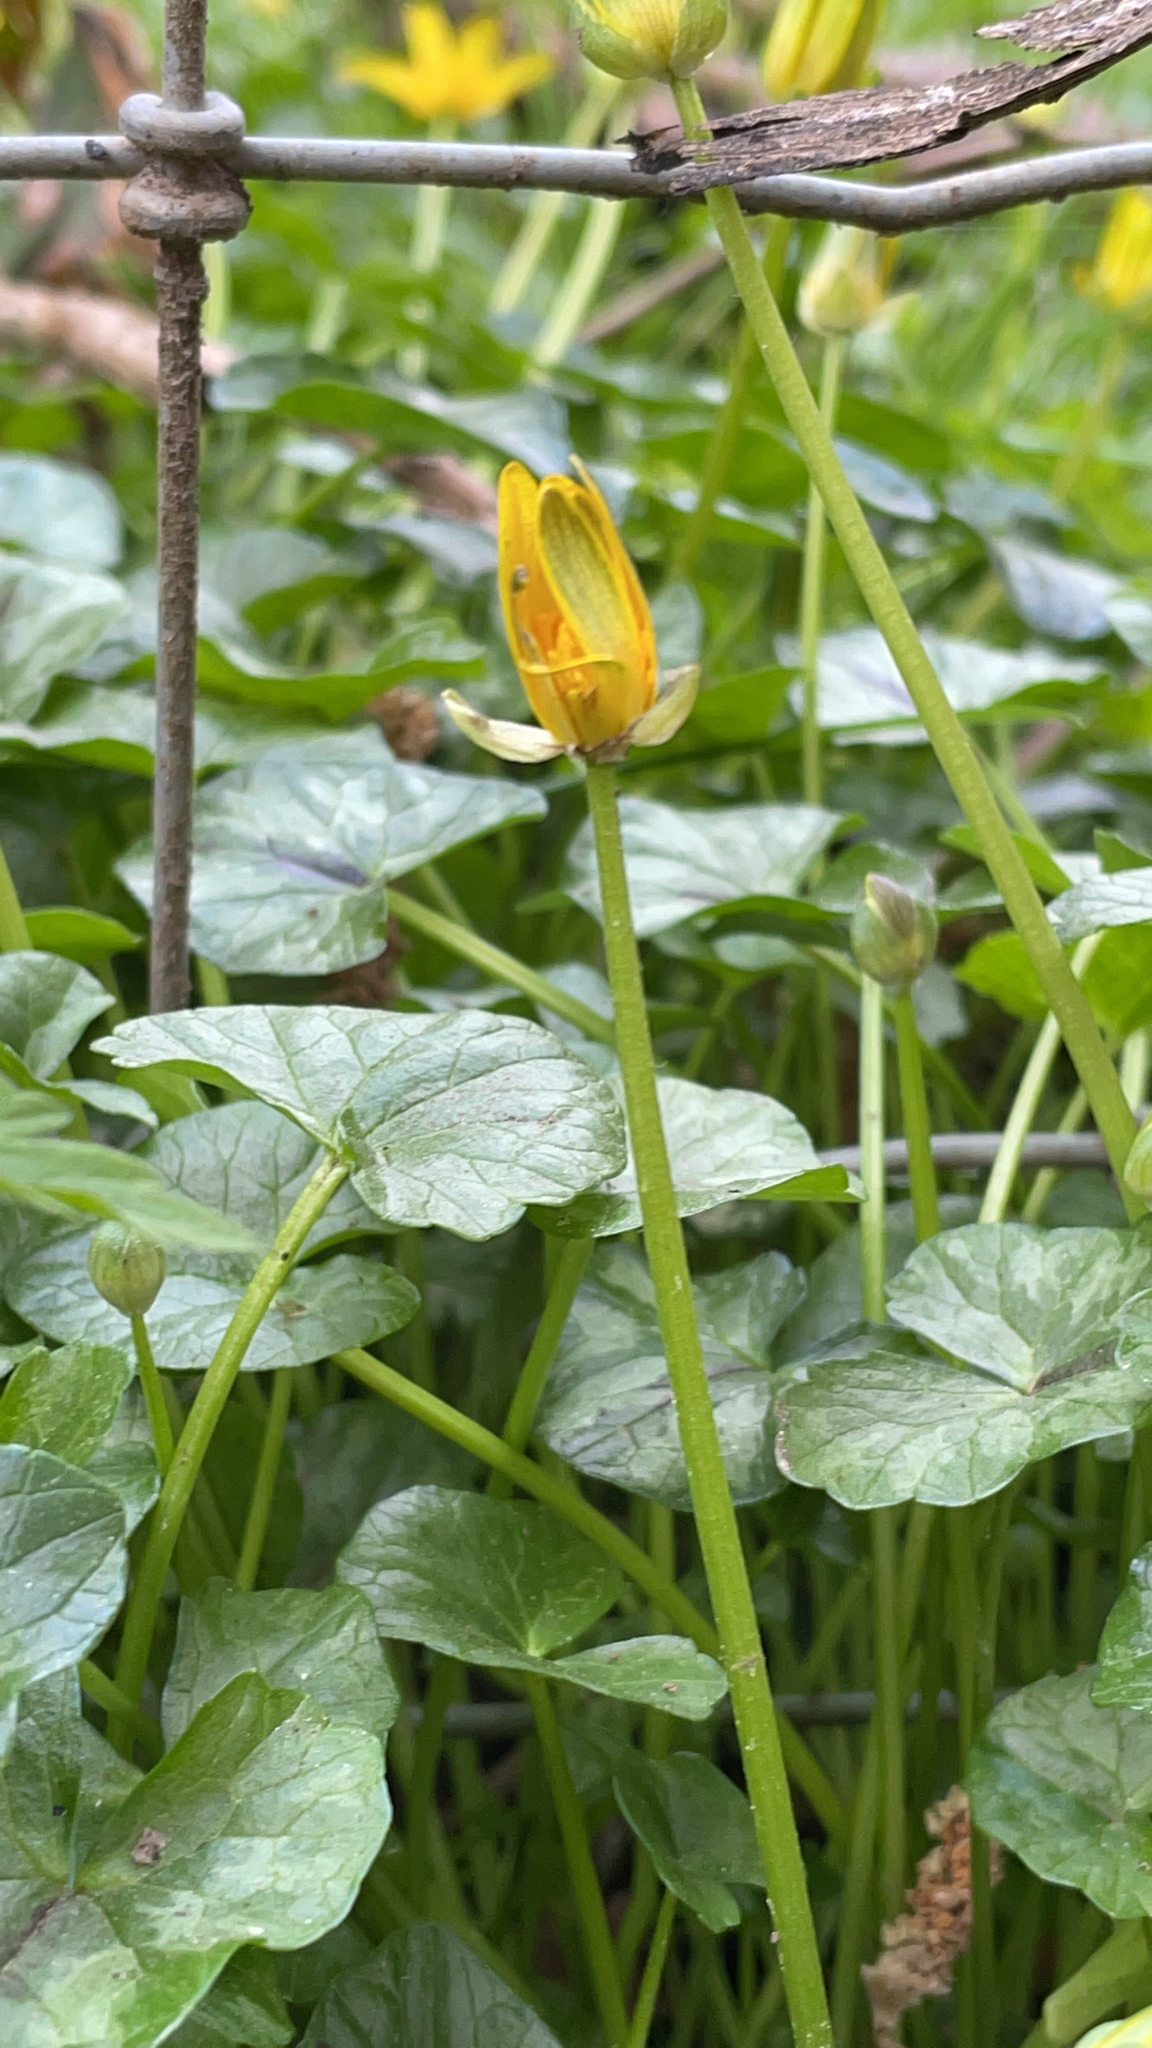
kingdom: Plantae
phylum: Tracheophyta
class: Magnoliopsida
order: Ranunculales
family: Ranunculaceae
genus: Ficaria
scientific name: Ficaria verna
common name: Lesser celandine
